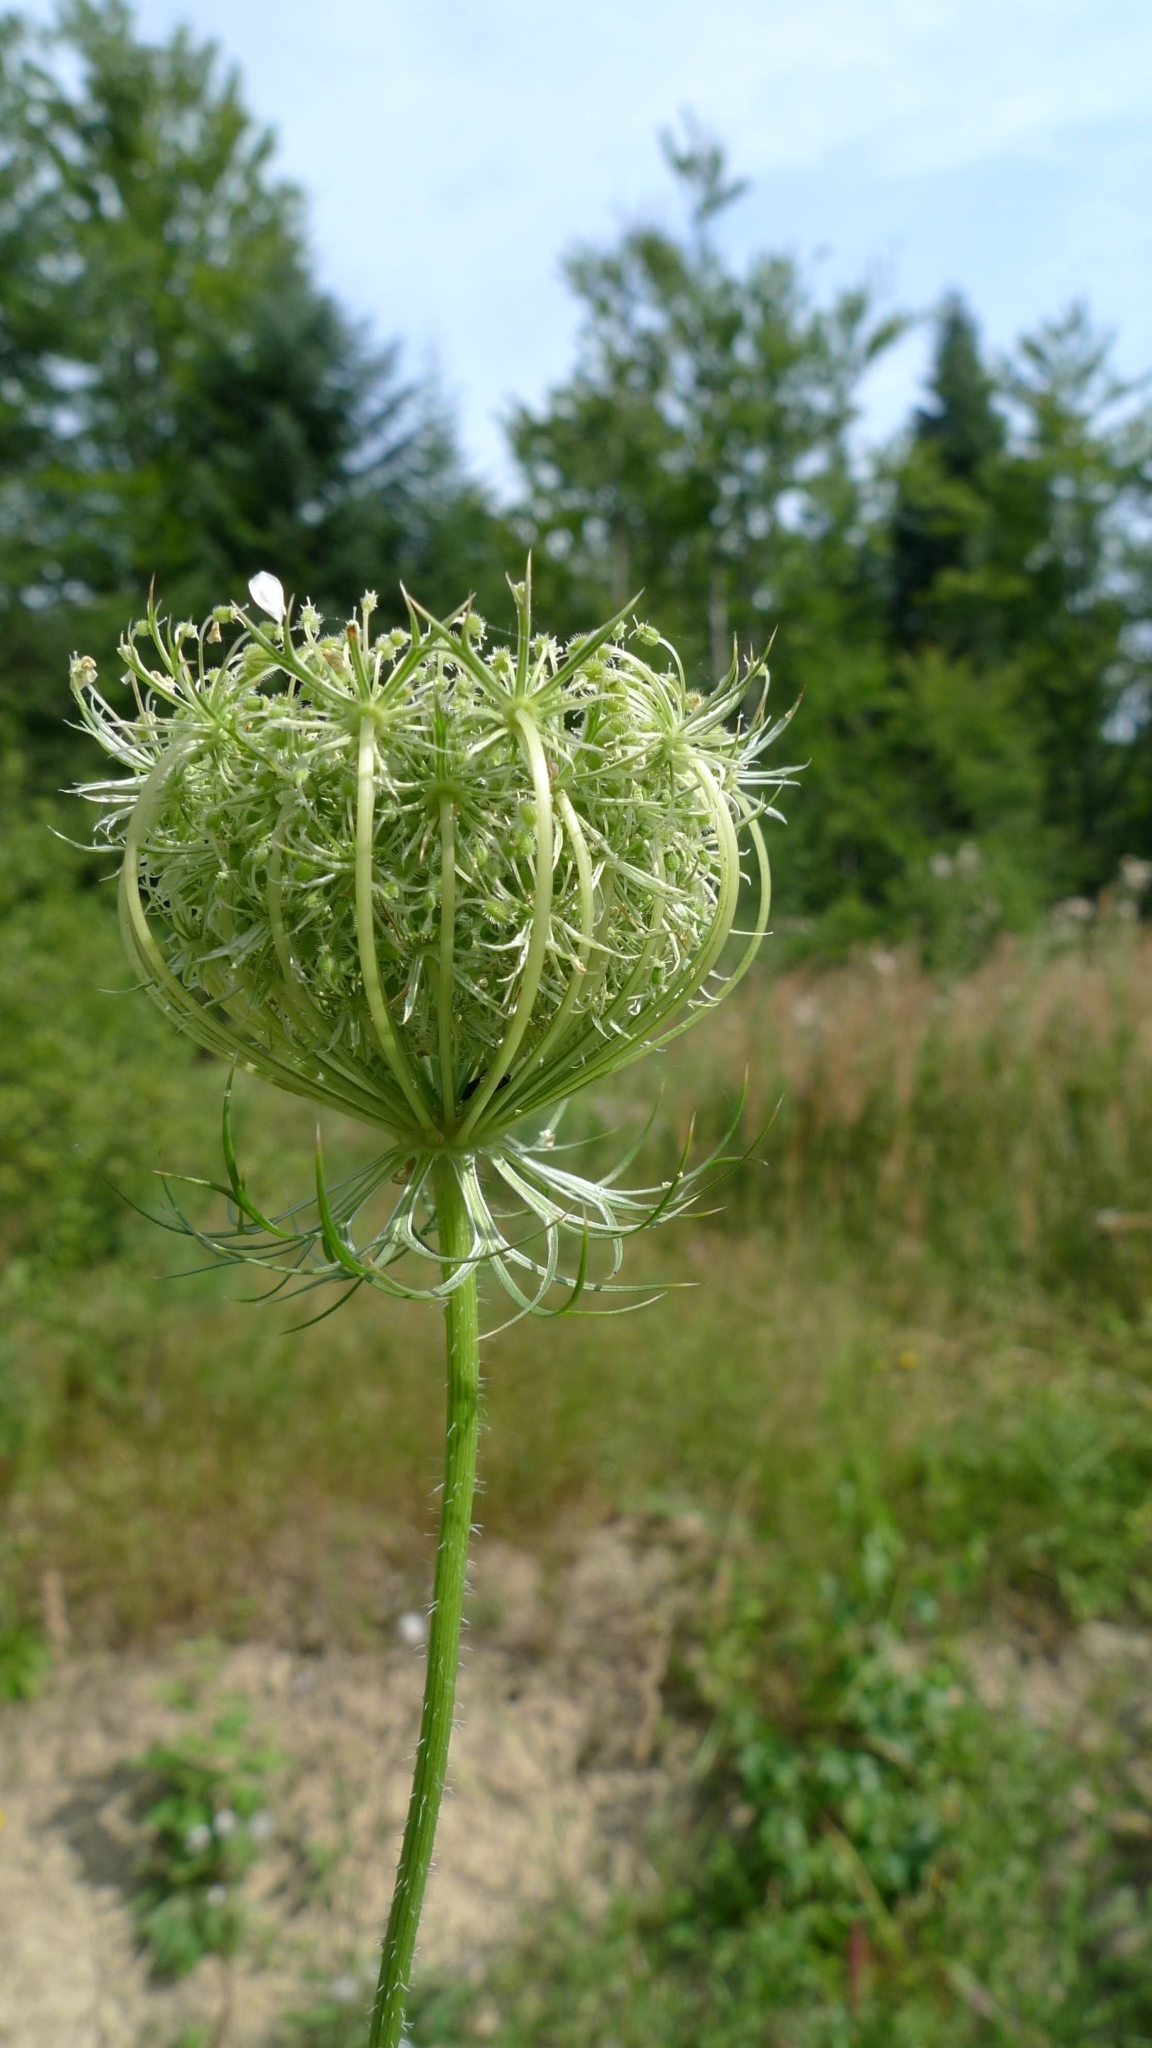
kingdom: Plantae
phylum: Tracheophyta
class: Magnoliopsida
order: Apiales
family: Apiaceae
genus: Daucus
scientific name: Daucus carota
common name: Wild carrot
